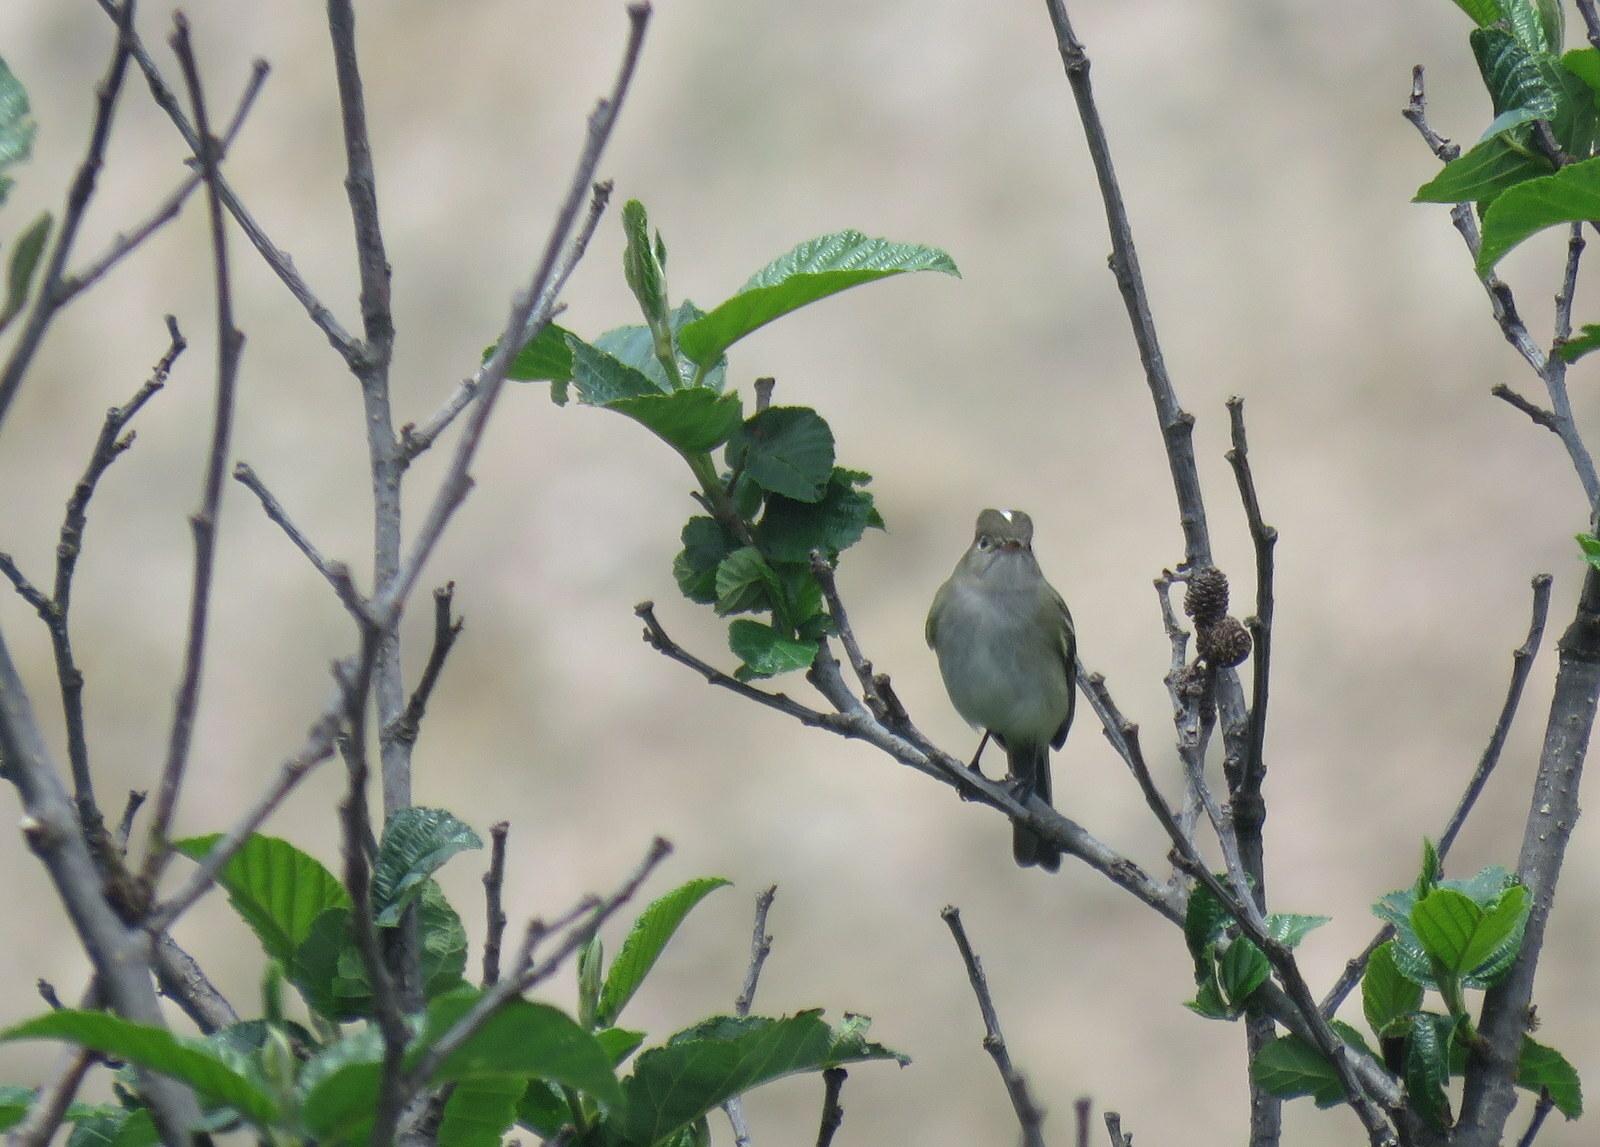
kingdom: Animalia
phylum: Chordata
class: Aves
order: Passeriformes
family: Tyrannidae
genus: Elaenia
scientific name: Elaenia albiceps
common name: White-crested elaenia
